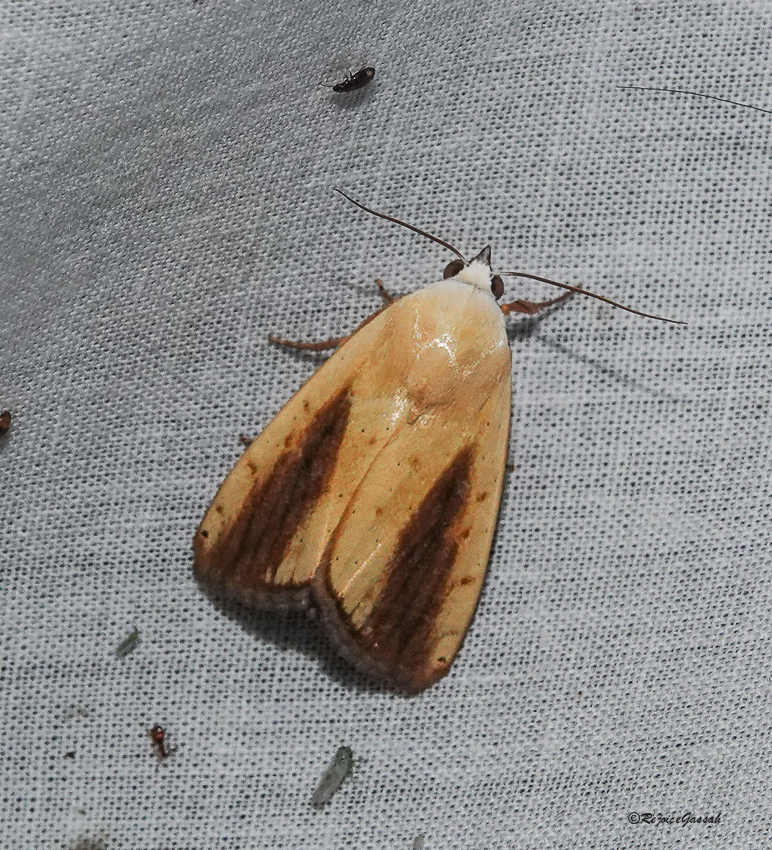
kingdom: Animalia
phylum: Arthropoda
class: Insecta
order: Lepidoptera
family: Nolidae
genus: Xanthodes
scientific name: Xanthodes intersepta
